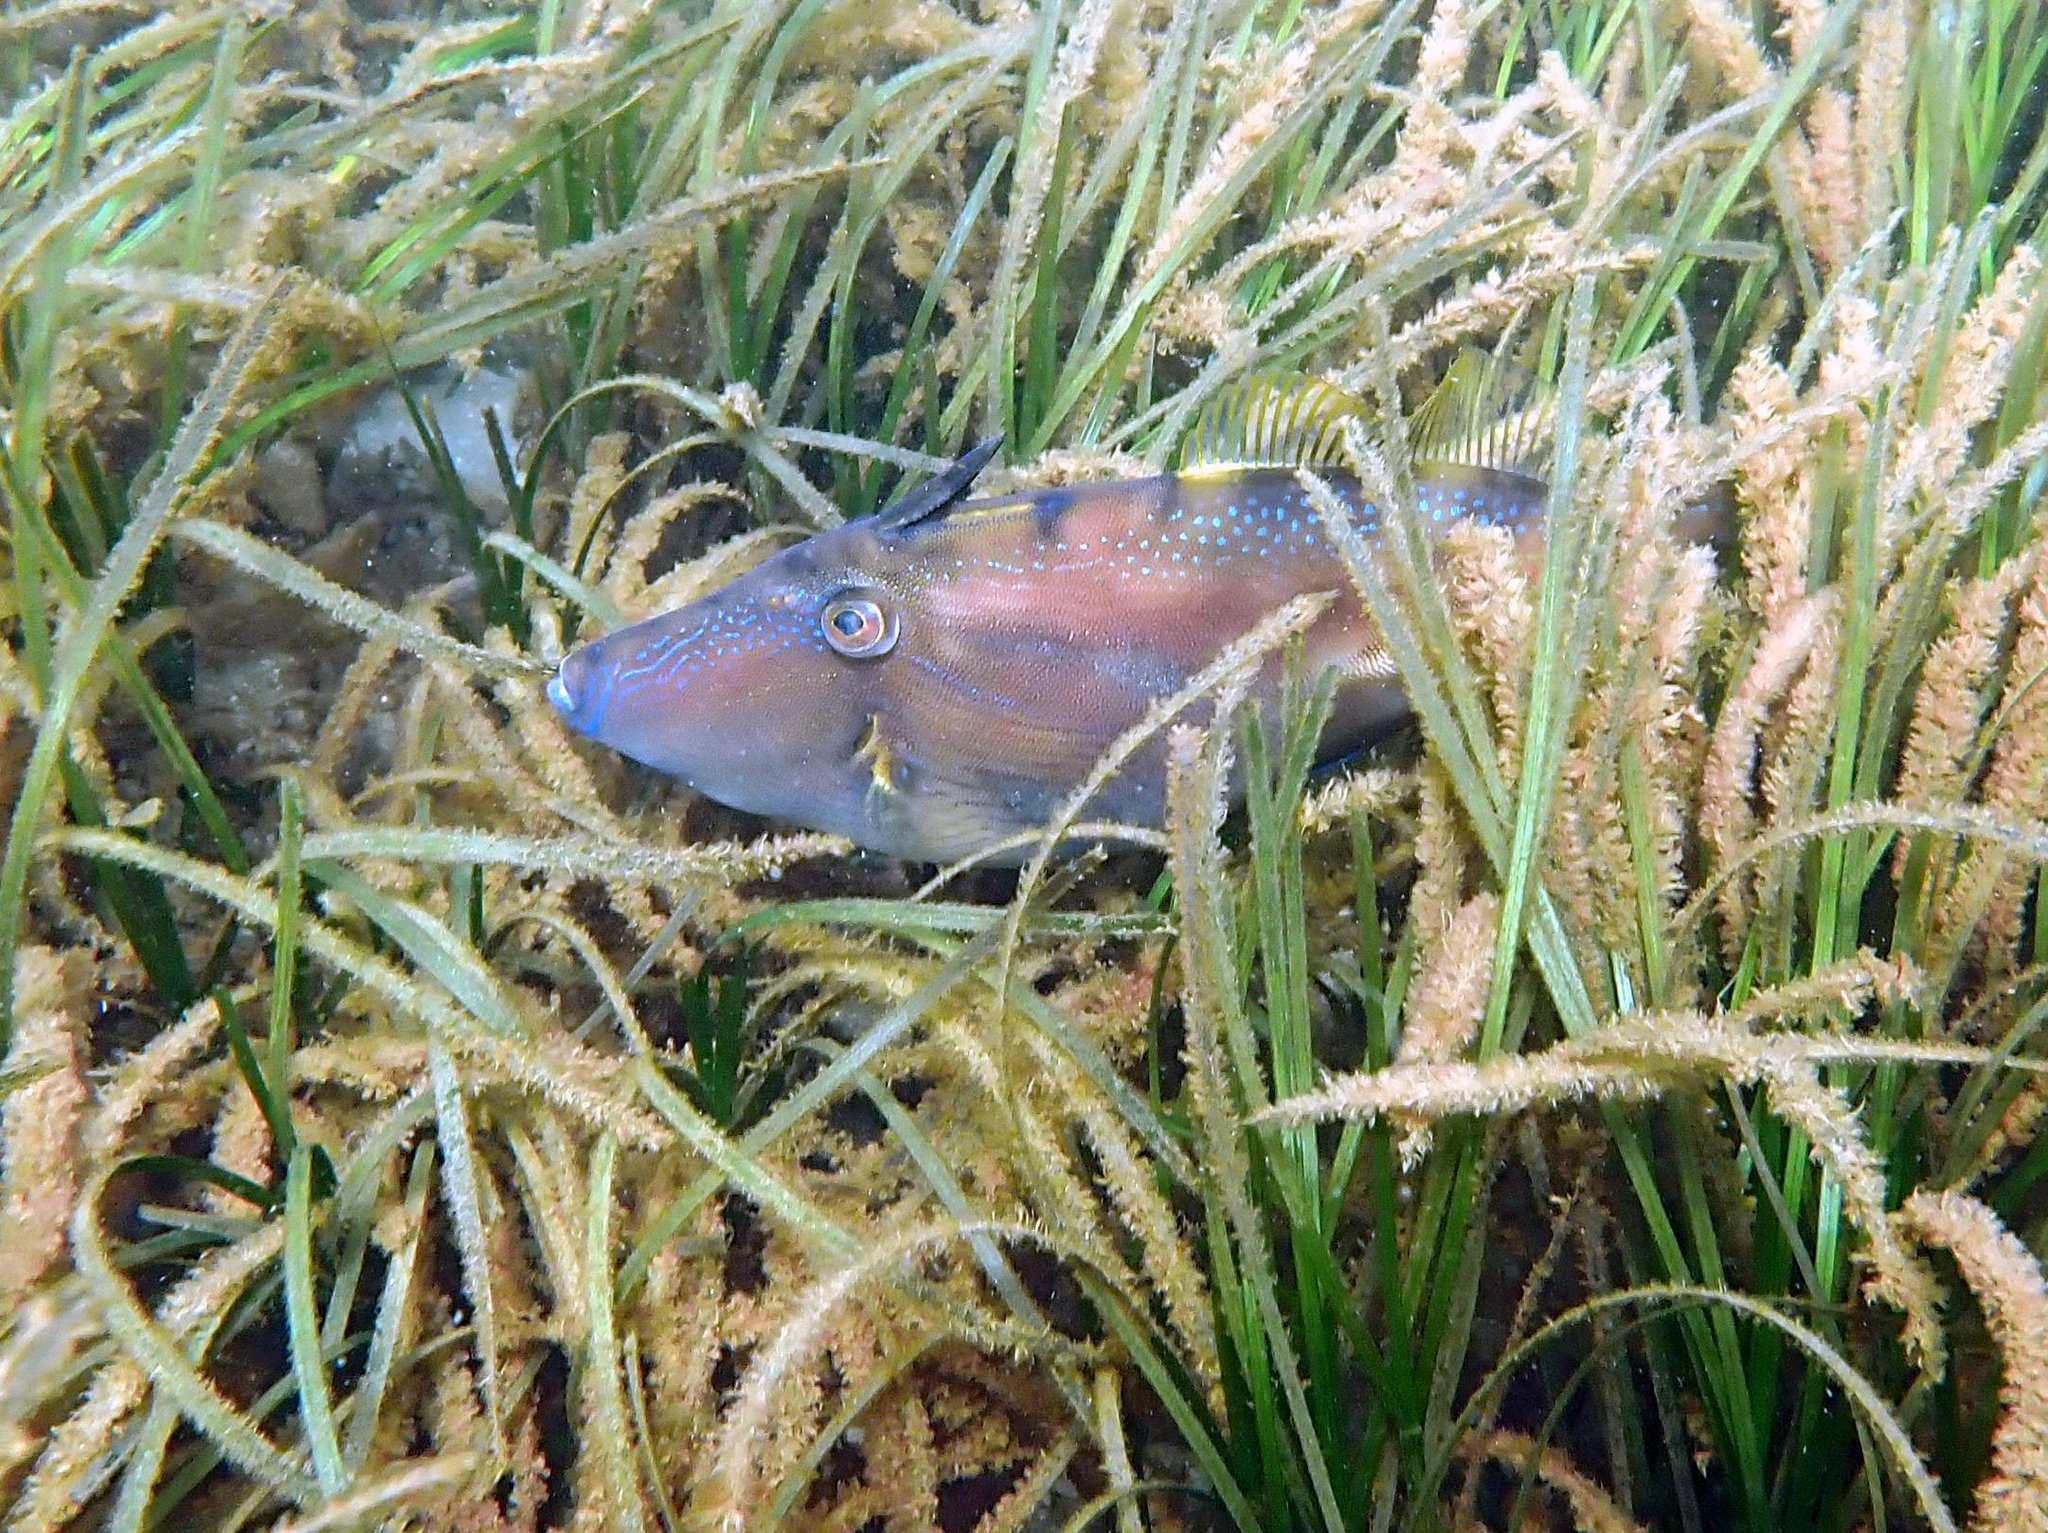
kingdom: Animalia
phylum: Chordata
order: Tetraodontiformes
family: Monacanthidae
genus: Acanthaluteres
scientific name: Acanthaluteres vittiger
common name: Brown leatherjacket
